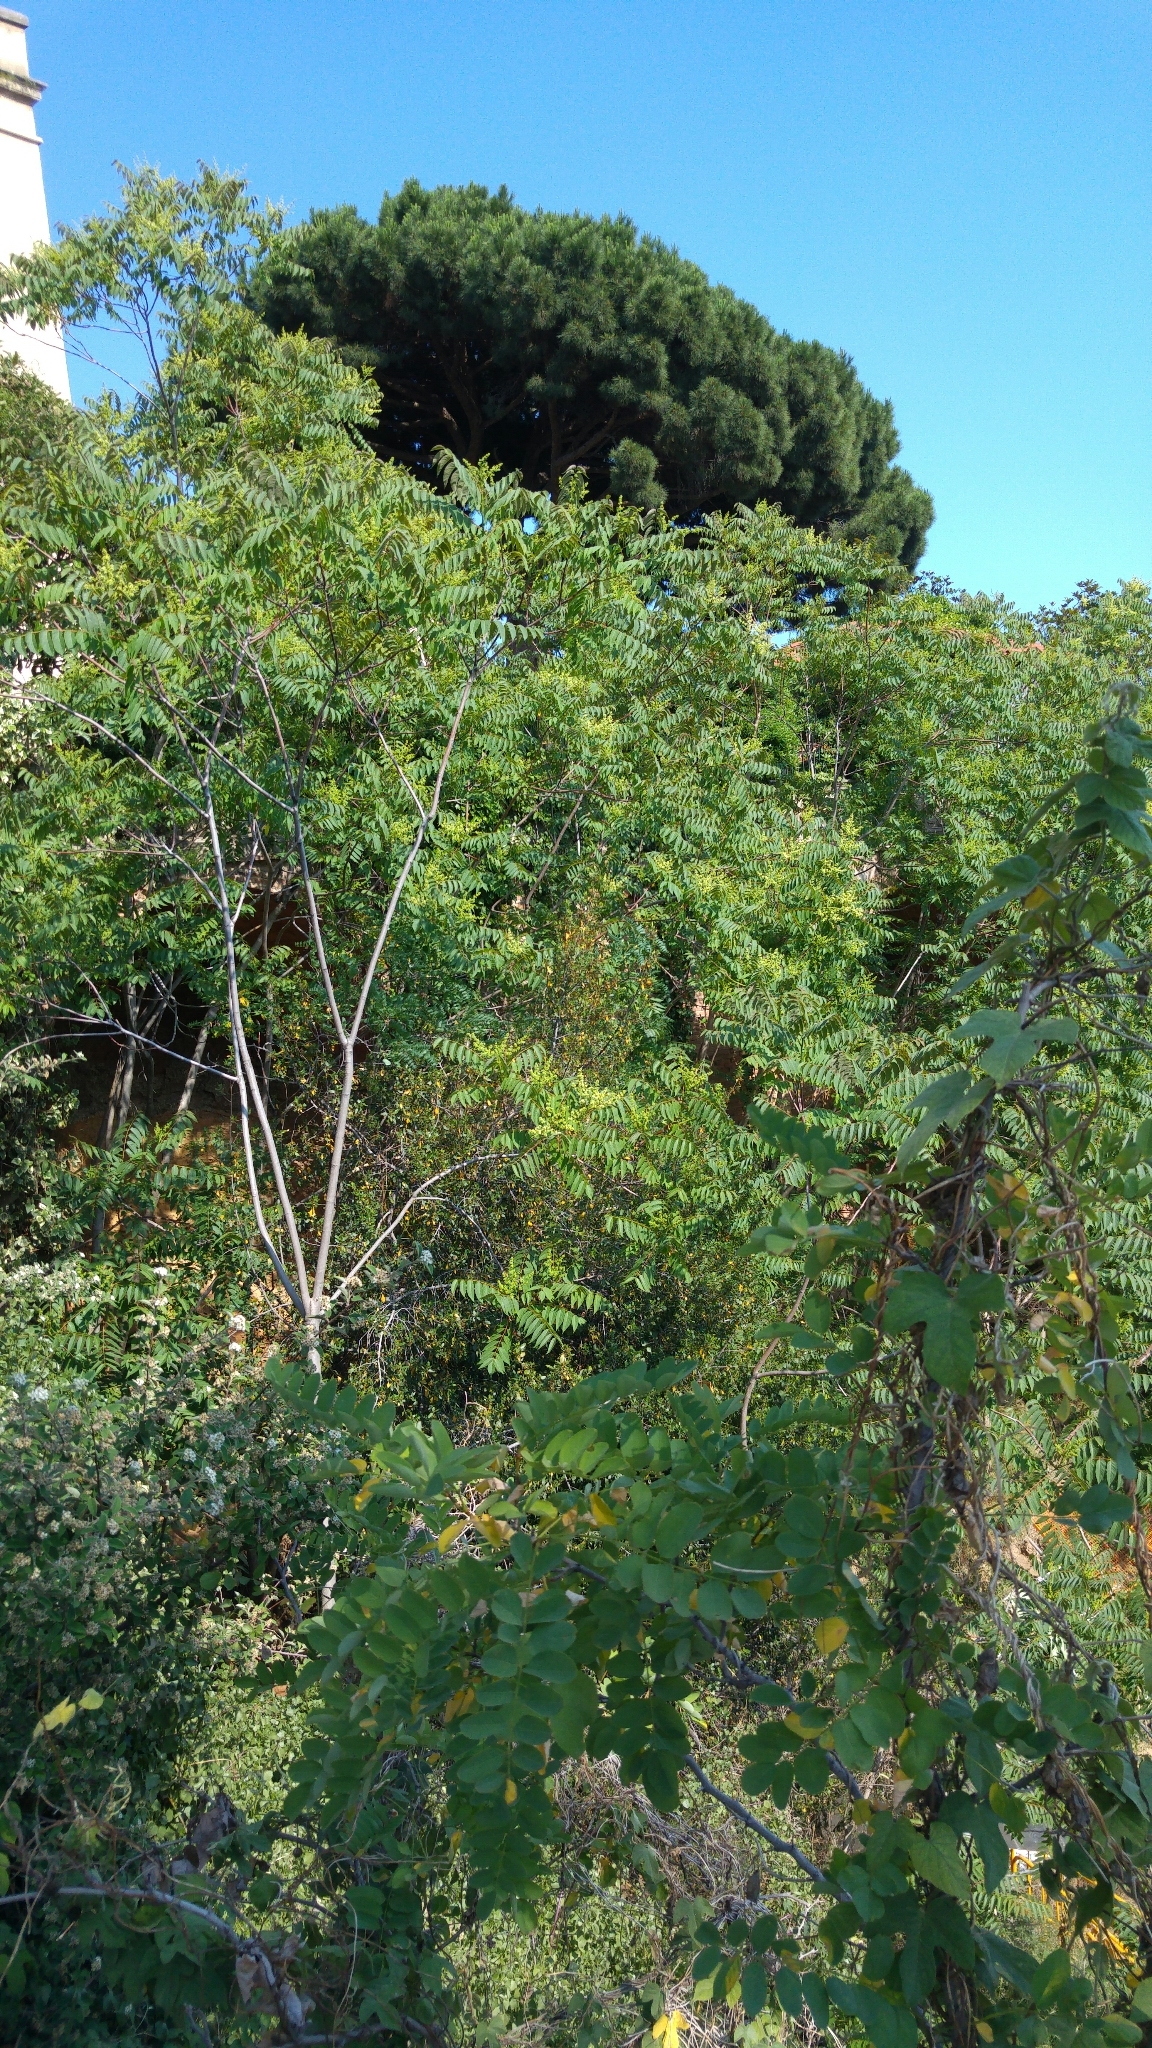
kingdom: Plantae
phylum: Tracheophyta
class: Magnoliopsida
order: Sapindales
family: Simaroubaceae
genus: Ailanthus
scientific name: Ailanthus altissima
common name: Tree-of-heaven
